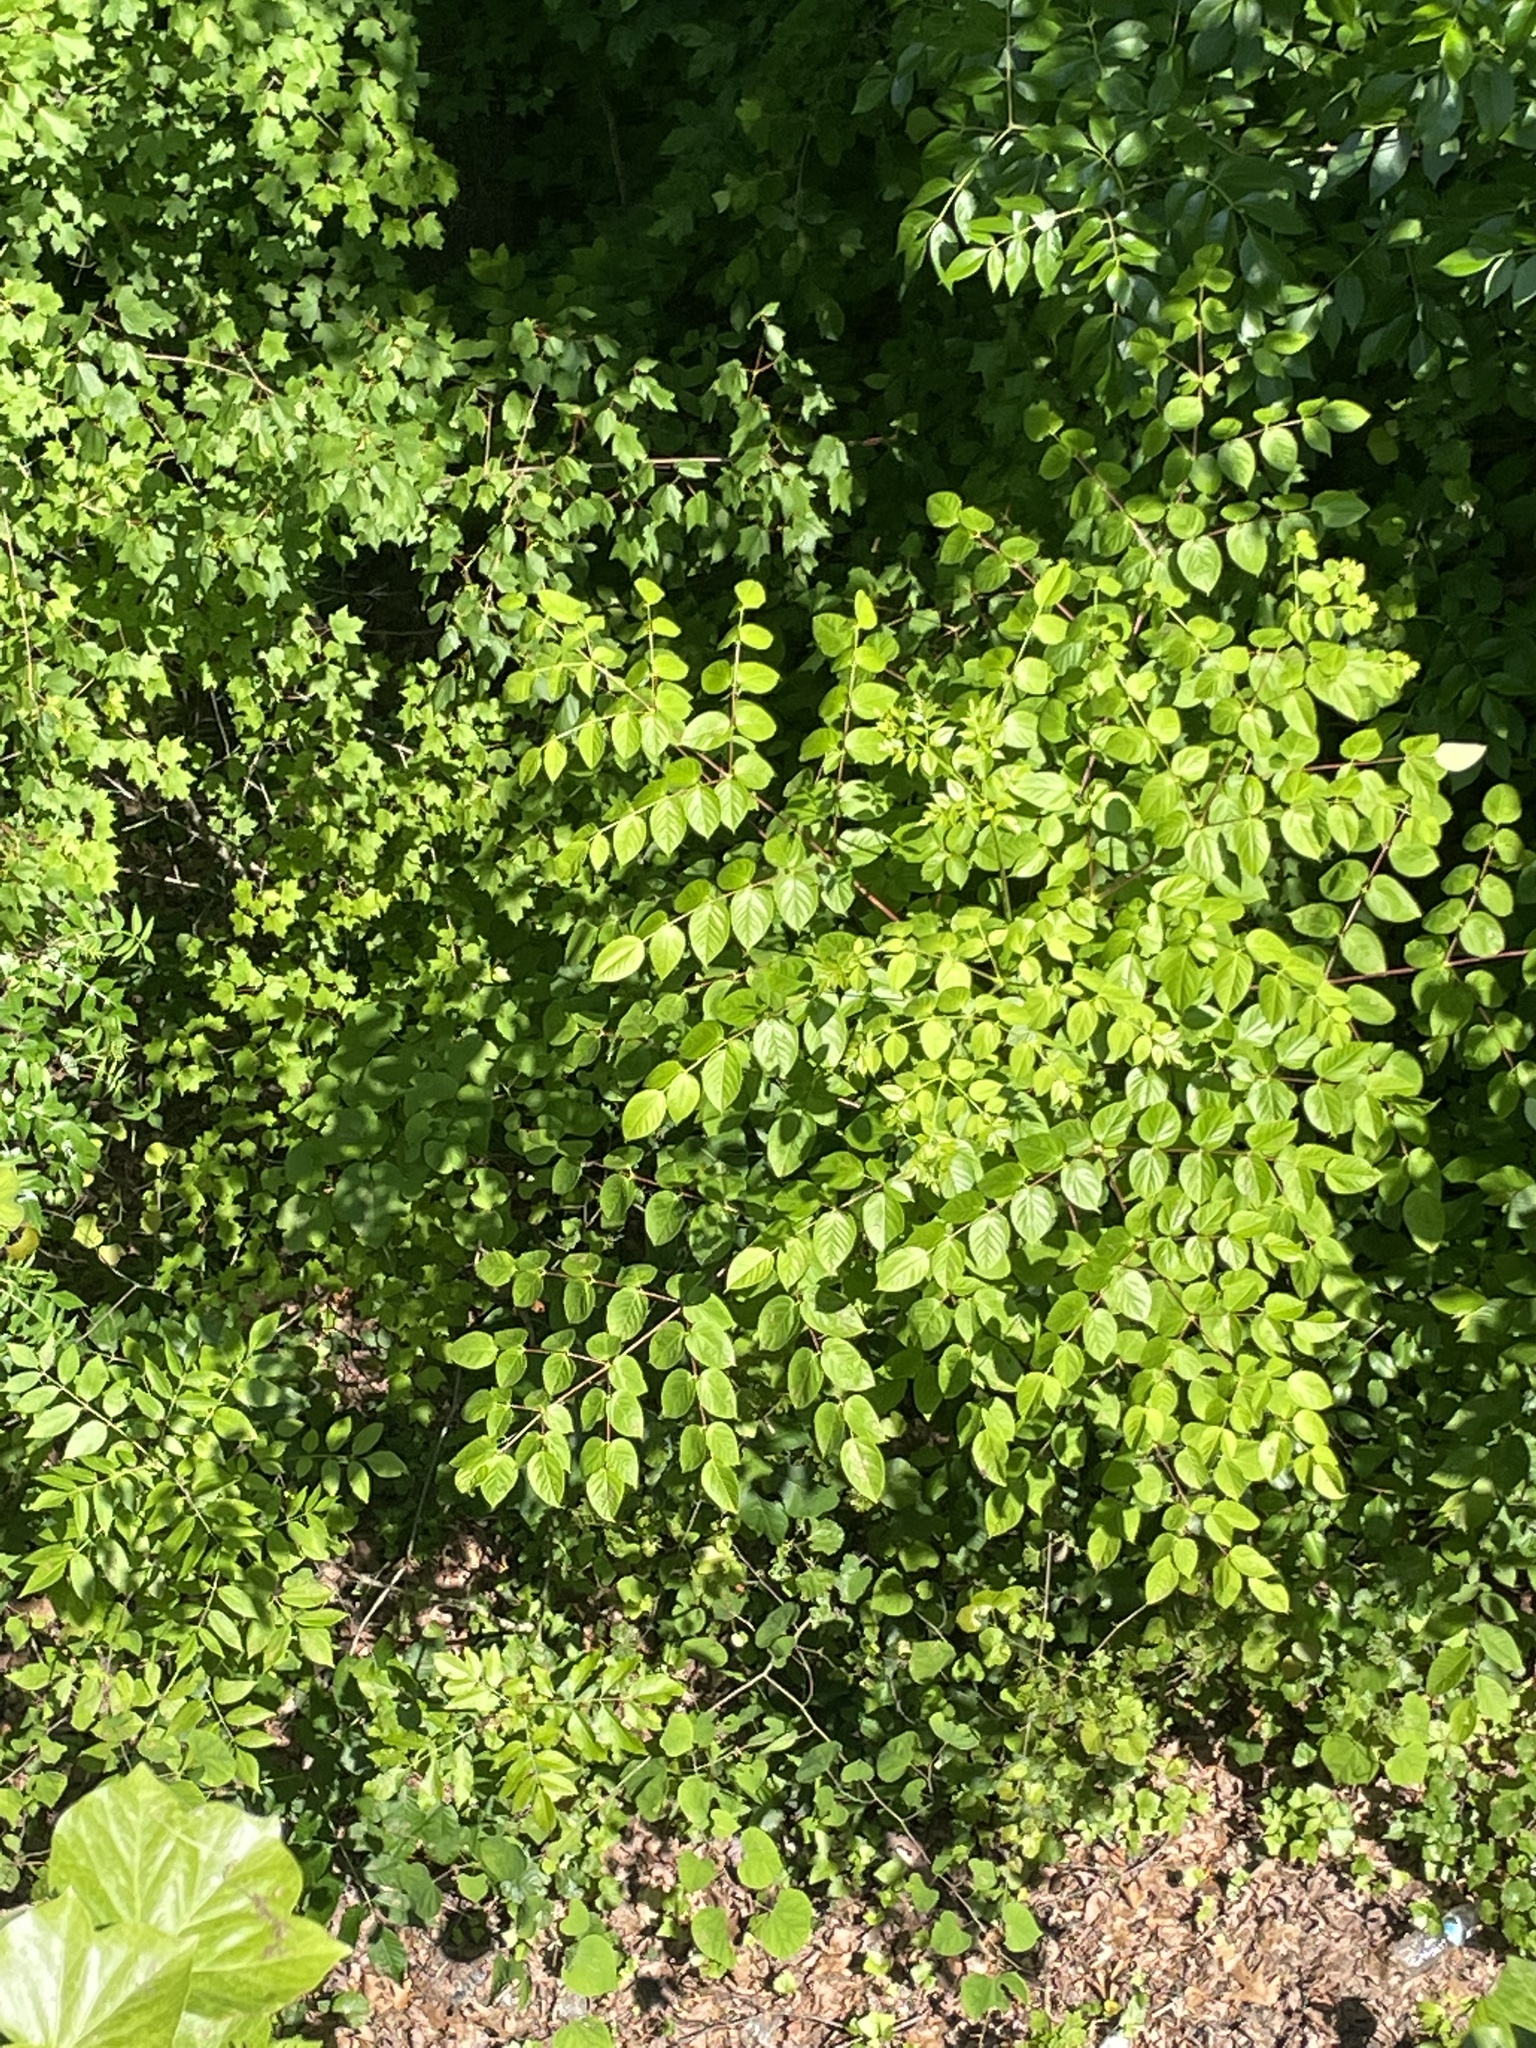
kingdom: Plantae
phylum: Tracheophyta
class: Magnoliopsida
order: Apiales
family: Araliaceae
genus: Aralia
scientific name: Aralia spinosa
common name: Hercules'-club
